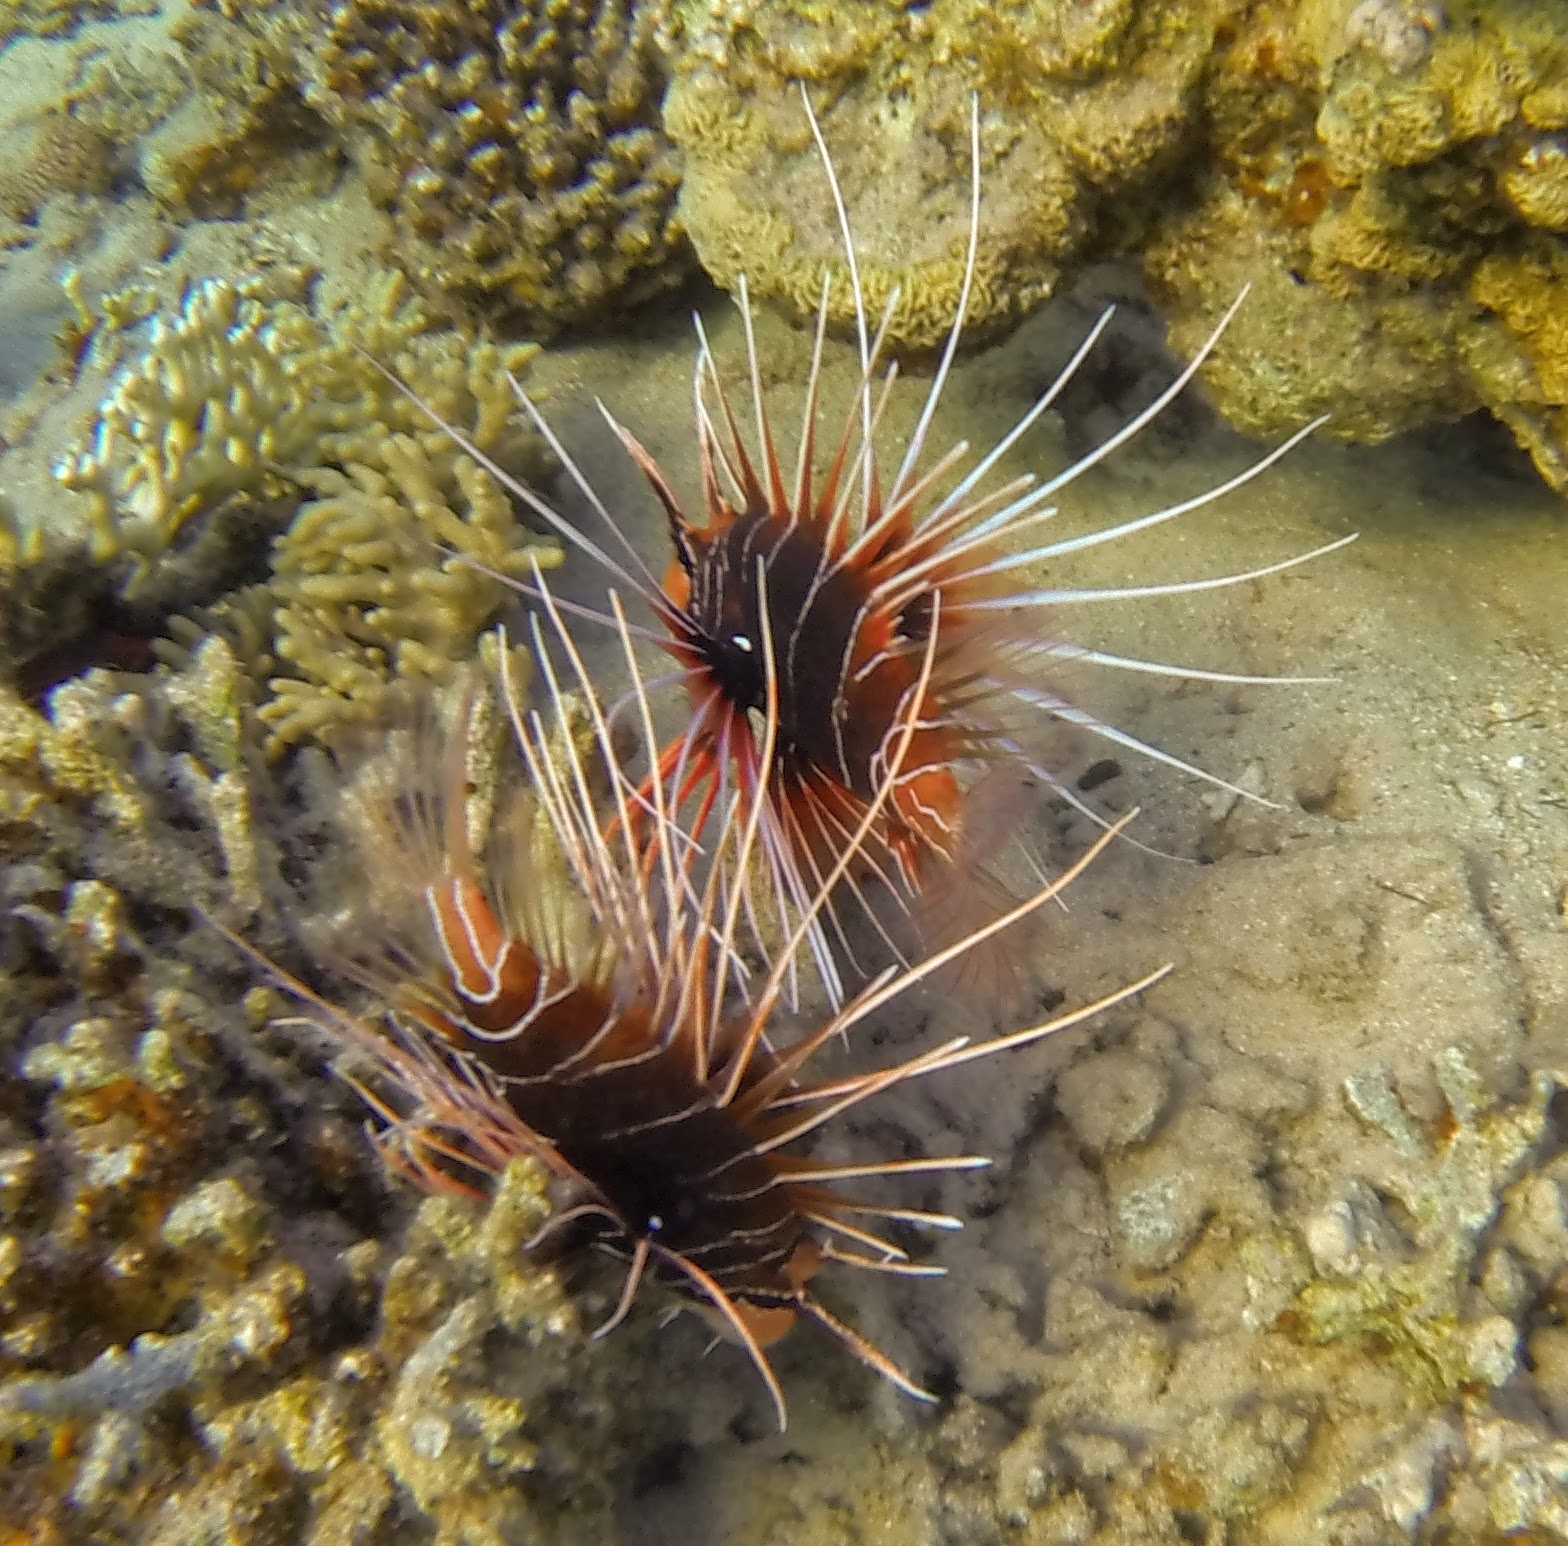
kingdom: Animalia
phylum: Chordata
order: Scorpaeniformes
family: Scorpaenidae
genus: Pterois
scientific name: Pterois cincta
